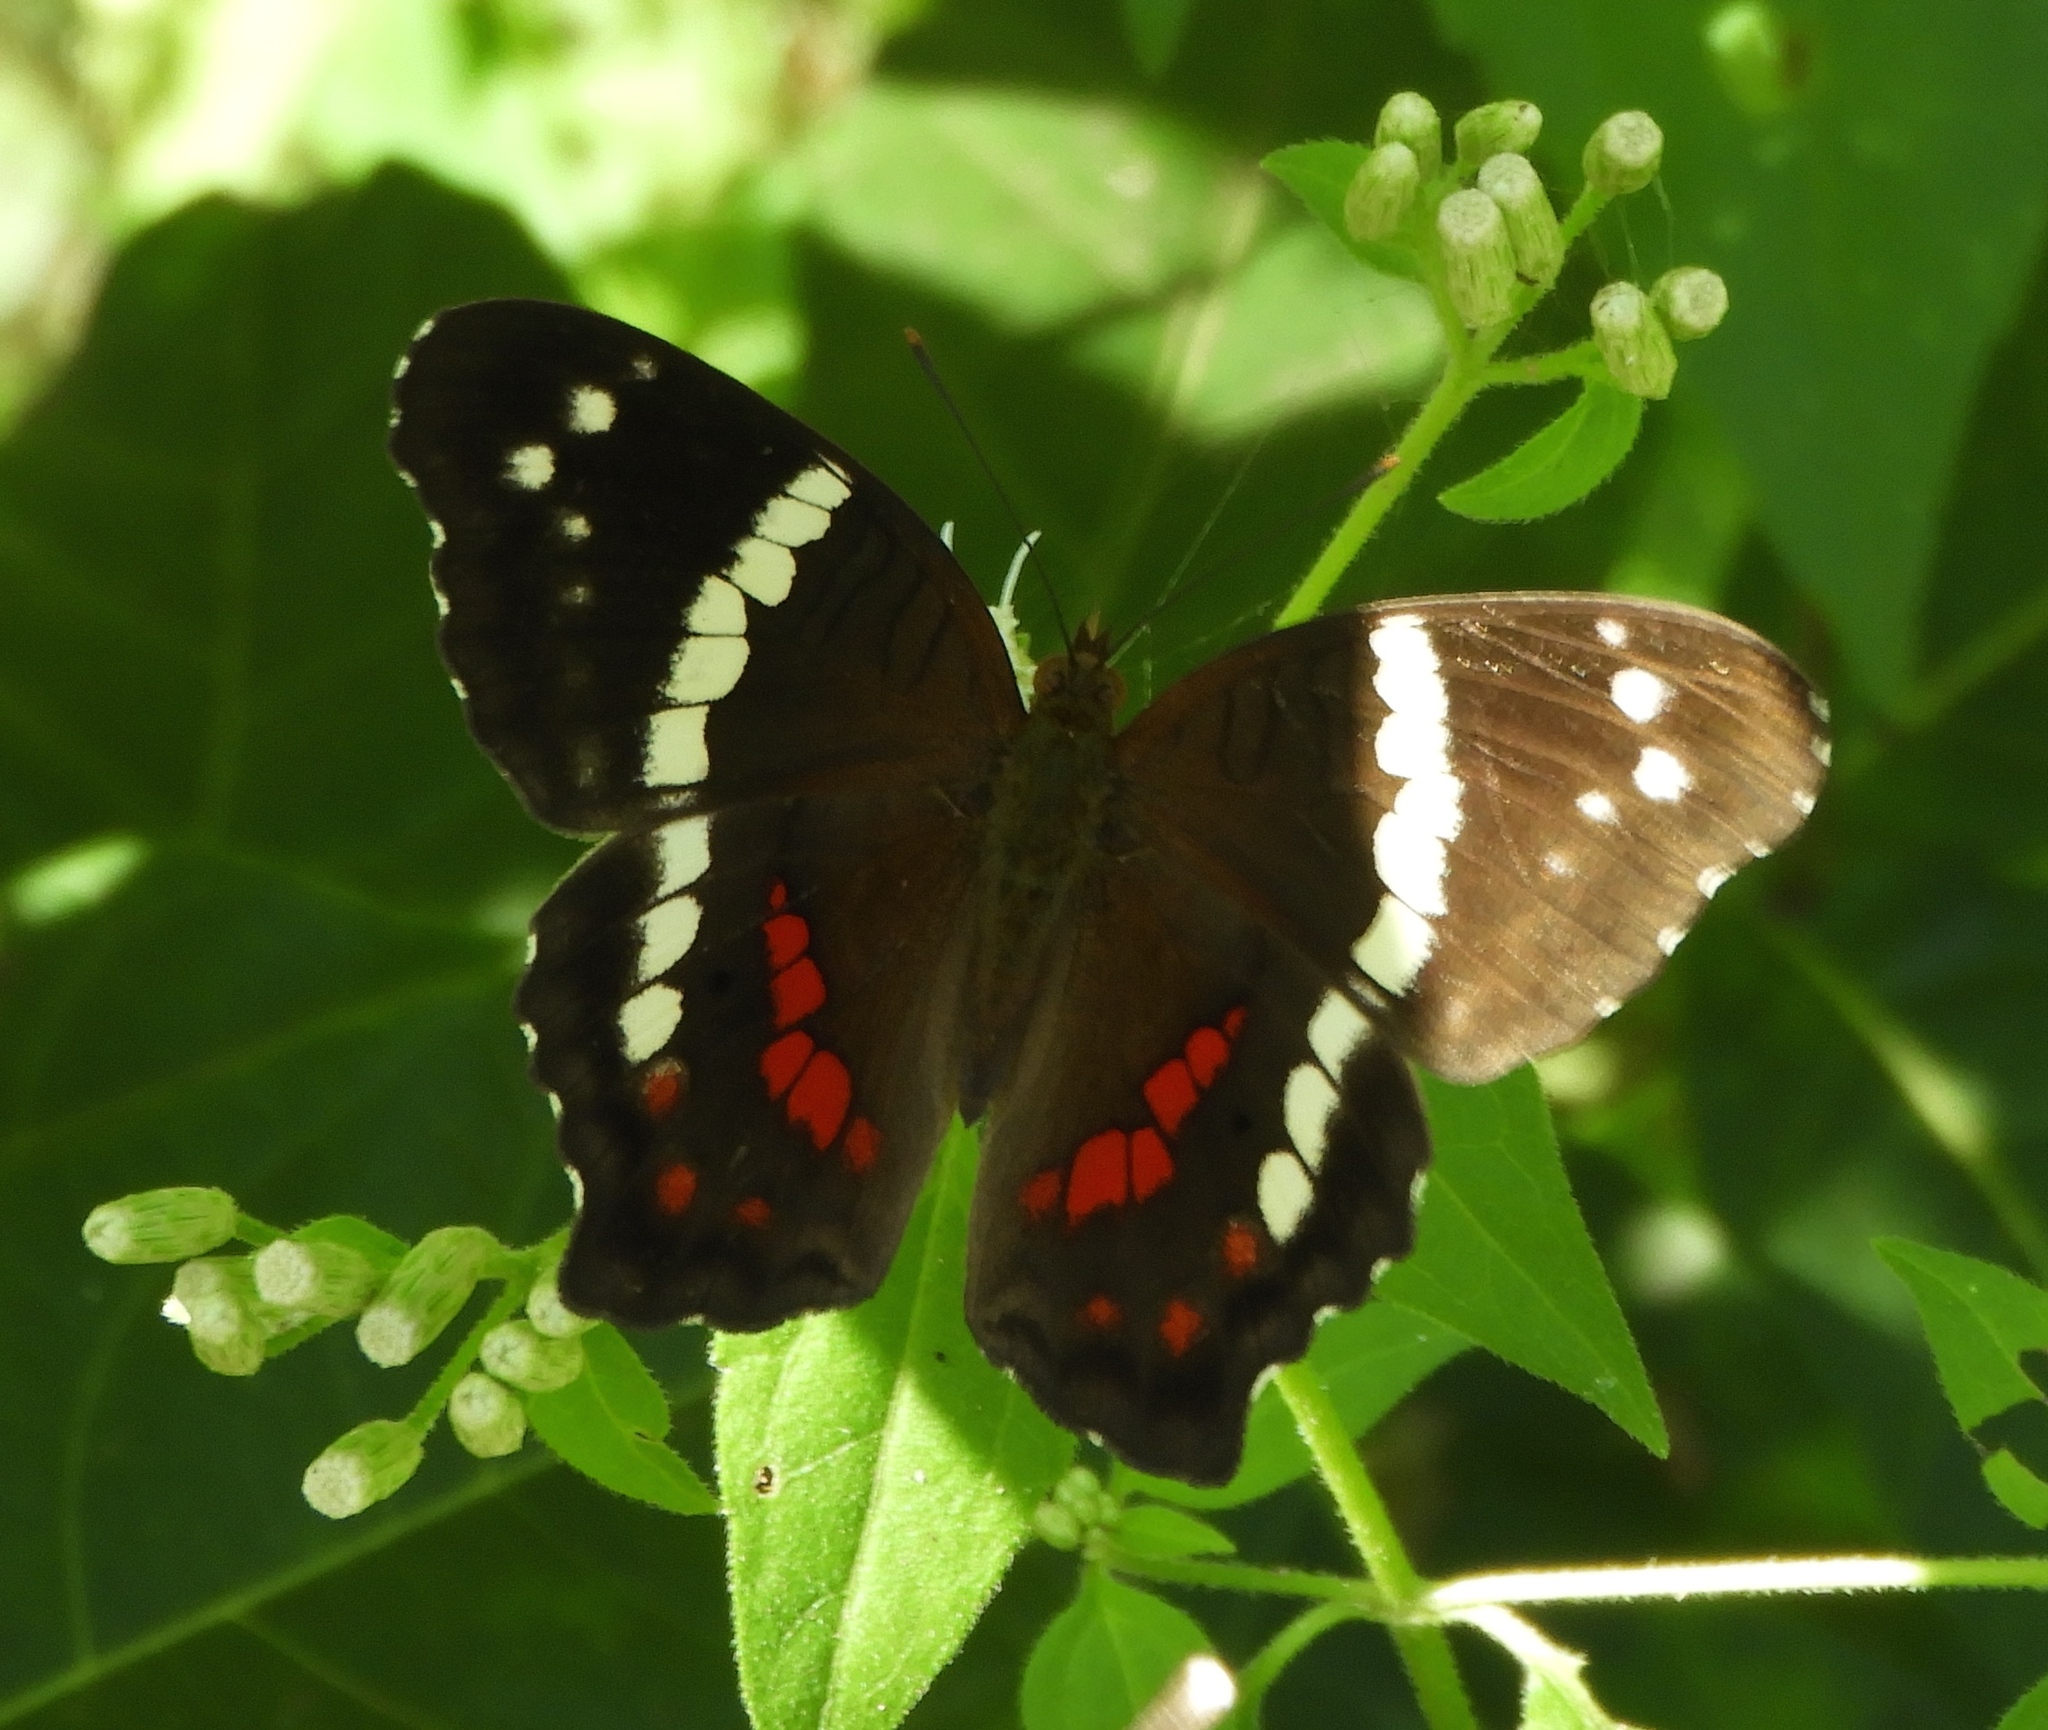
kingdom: Animalia
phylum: Arthropoda
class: Insecta
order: Lepidoptera
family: Nymphalidae
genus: Anartia
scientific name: Anartia fatima
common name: Banded peacock
